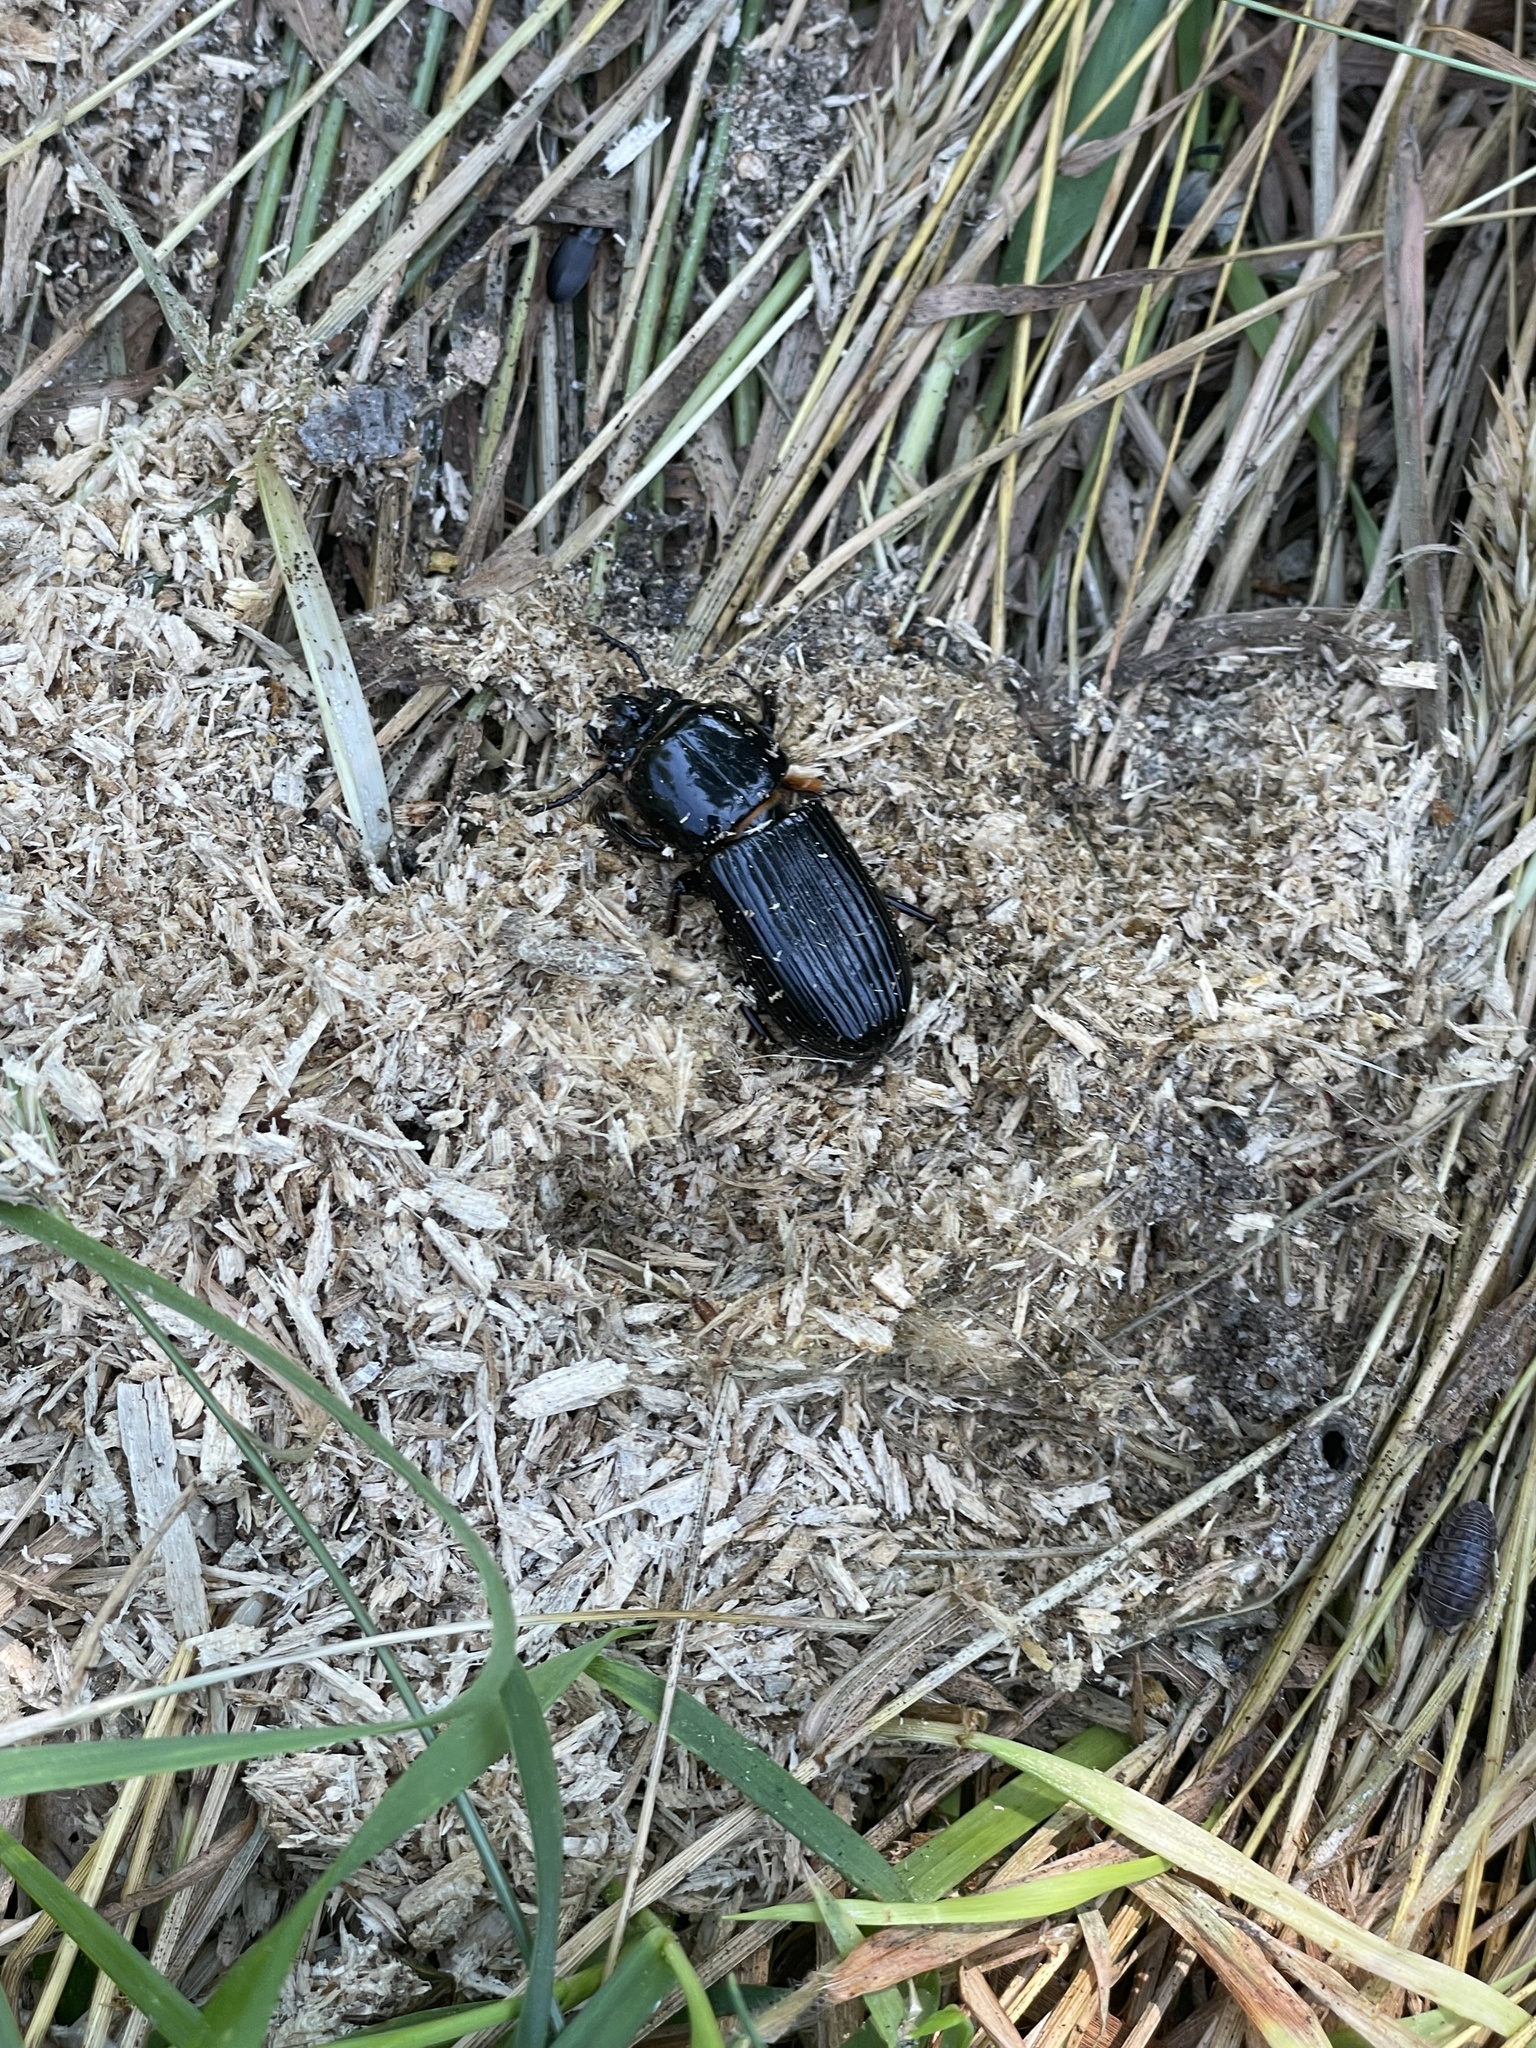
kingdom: Animalia
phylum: Arthropoda
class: Insecta
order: Coleoptera
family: Passalidae
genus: Odontotaenius
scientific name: Odontotaenius disjunctus
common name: Patent leather beetle
